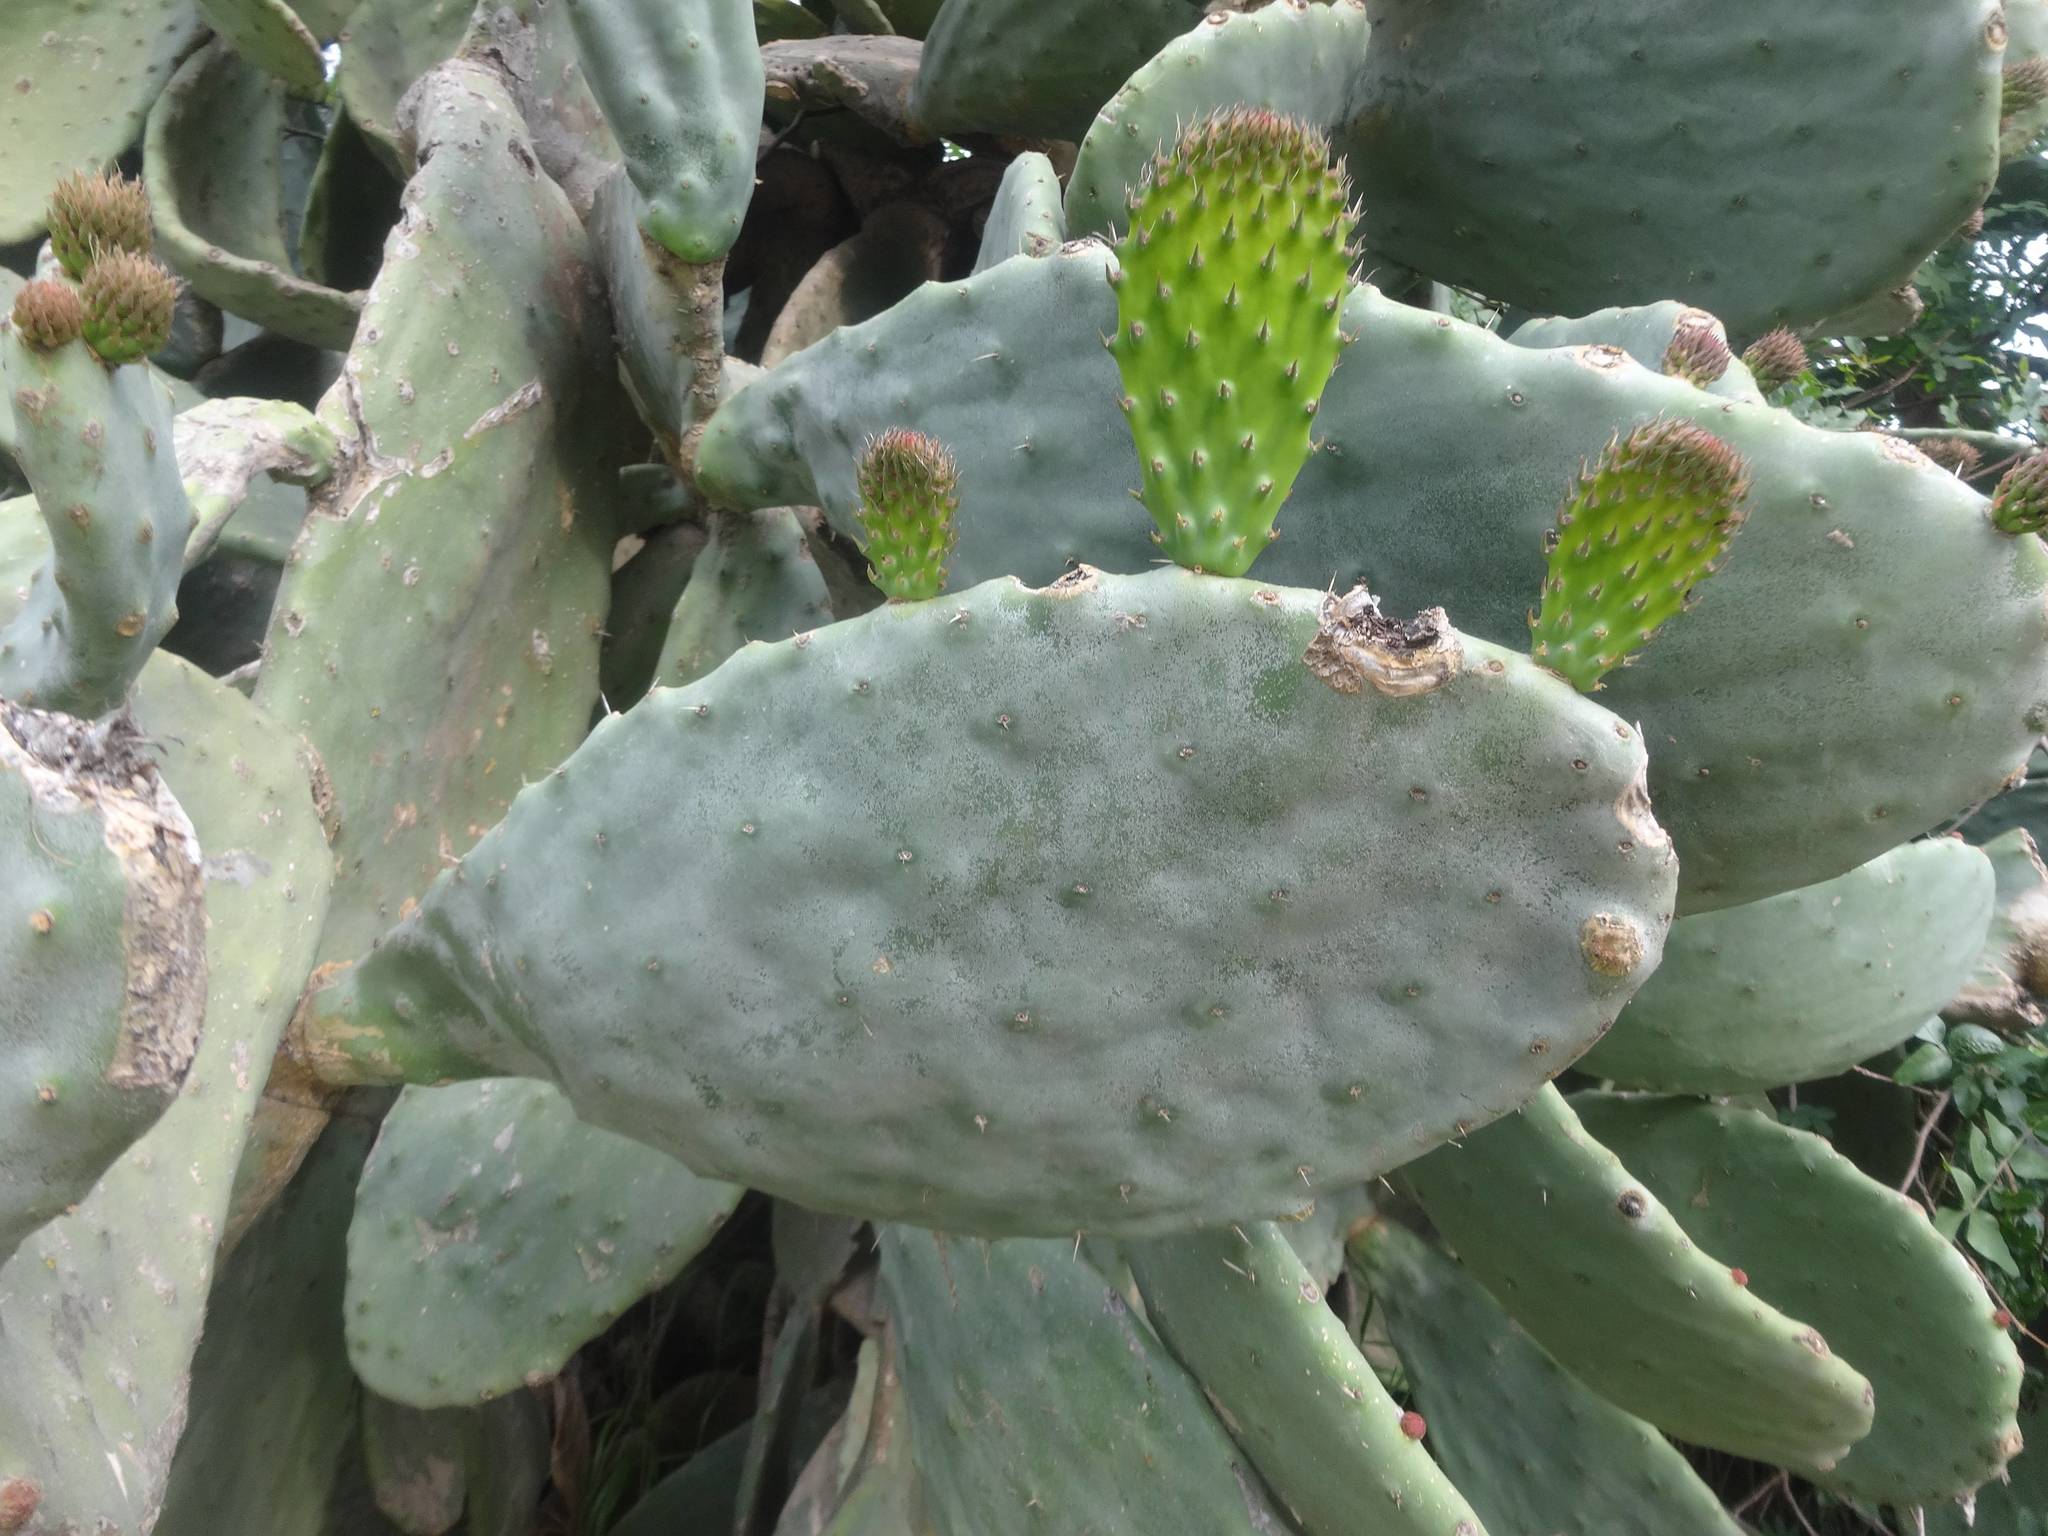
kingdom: Plantae
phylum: Tracheophyta
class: Magnoliopsida
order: Caryophyllales
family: Cactaceae
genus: Opuntia
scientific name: Opuntia ficus-indica
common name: Barbary fig
